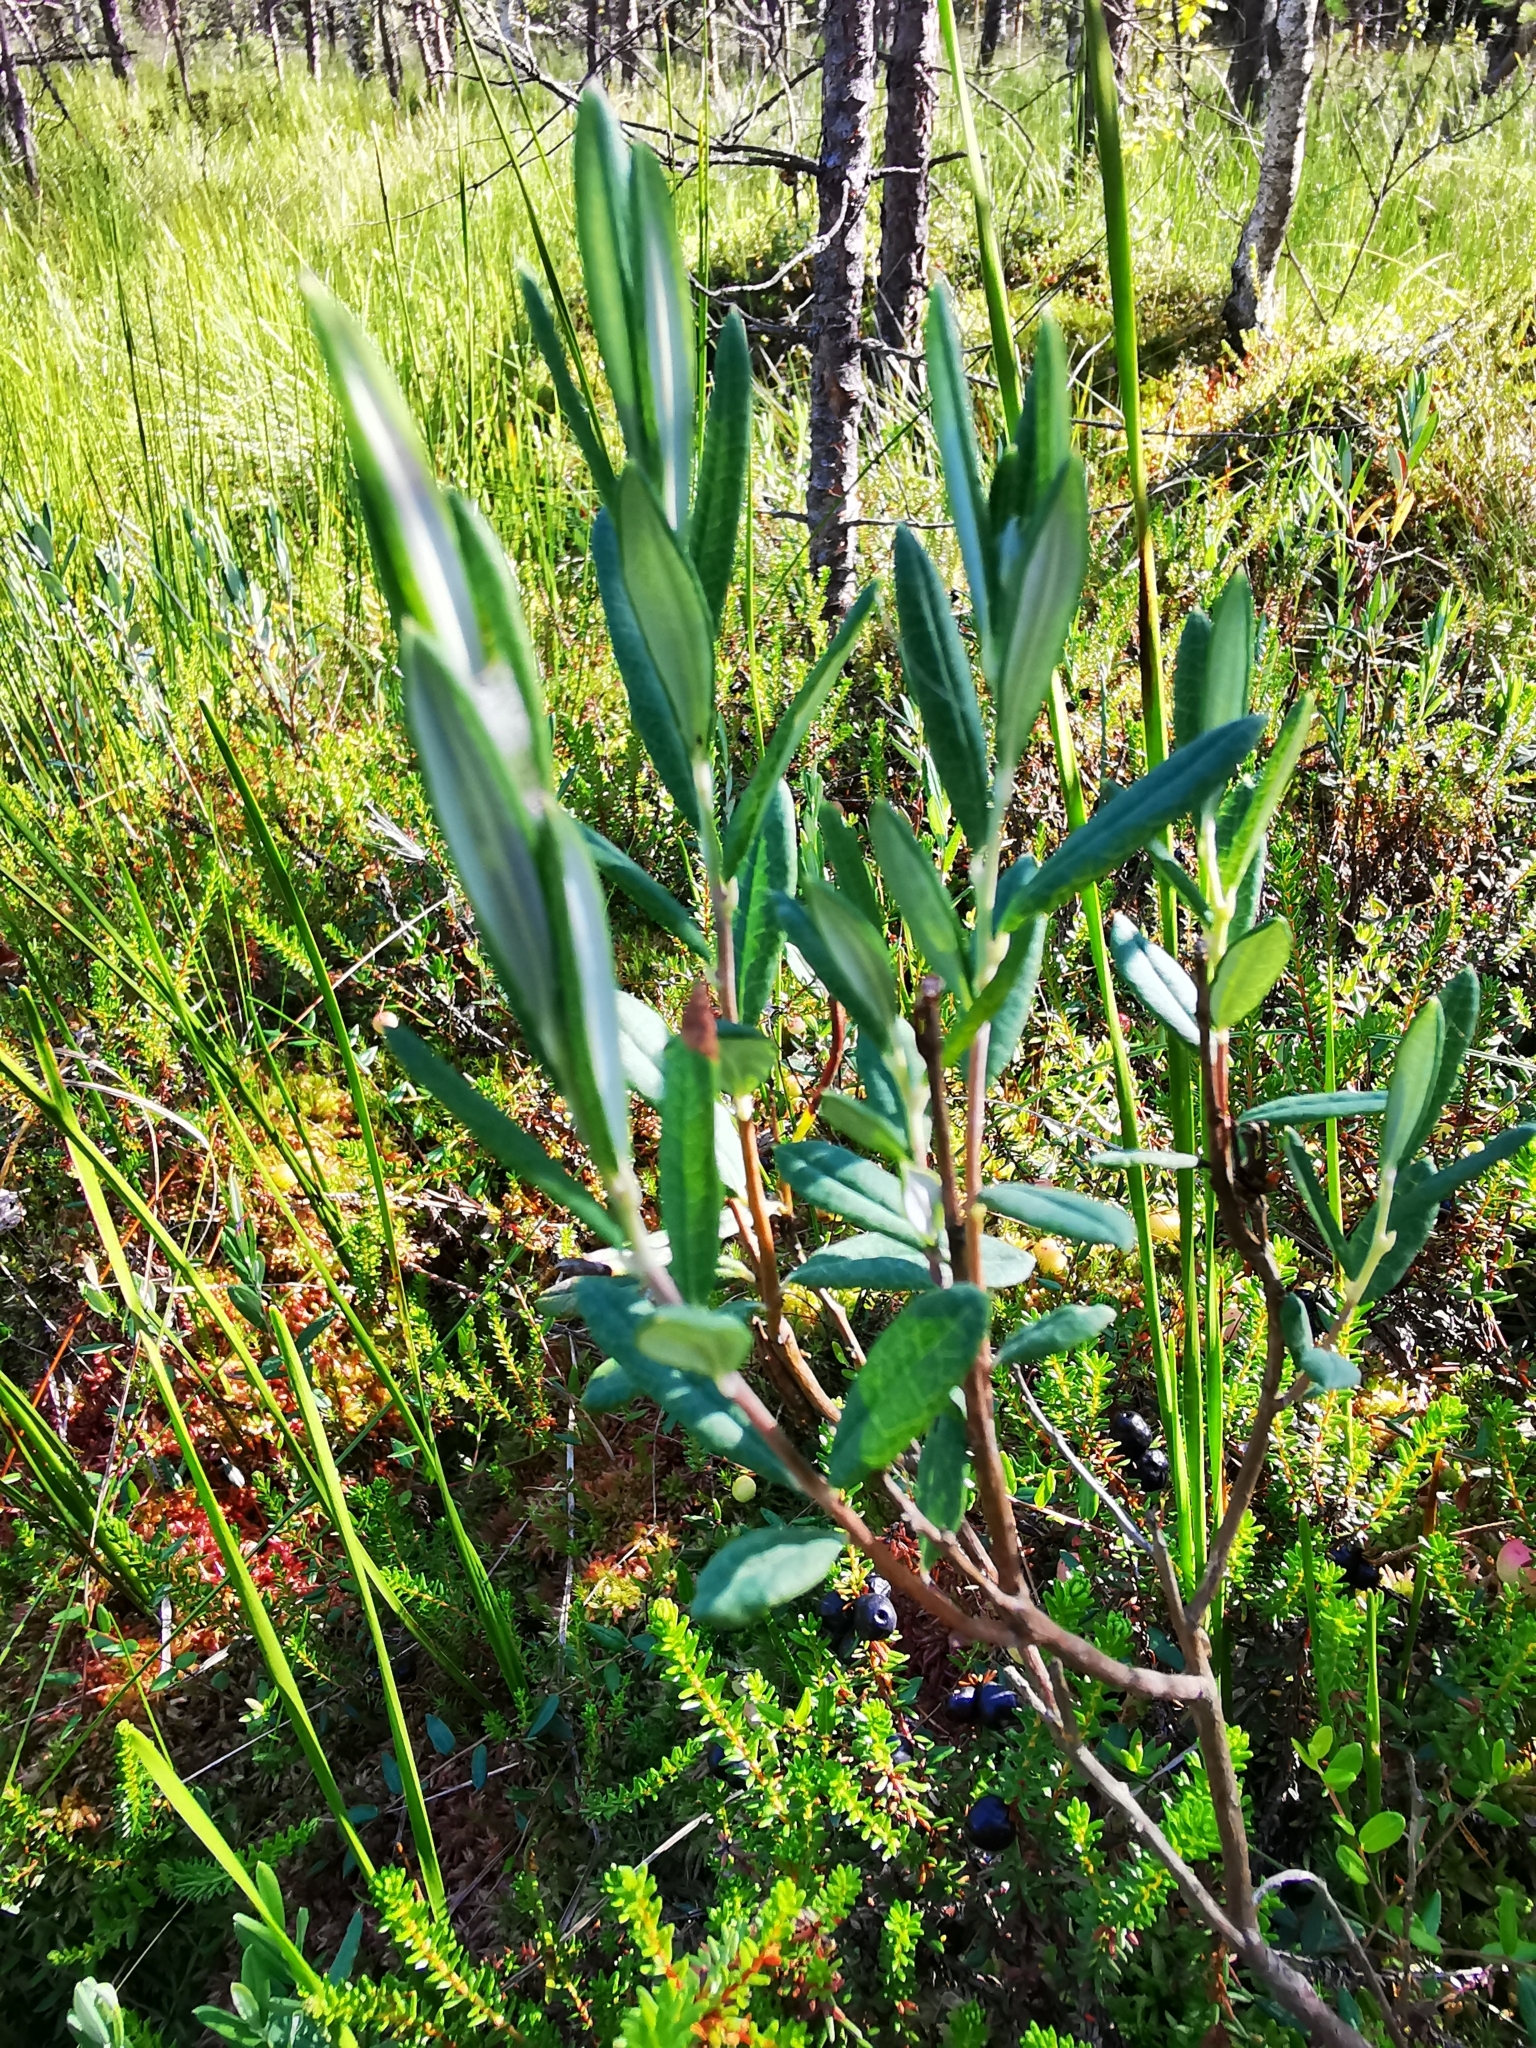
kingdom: Plantae
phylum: Tracheophyta
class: Magnoliopsida
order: Ericales
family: Ericaceae
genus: Andromeda
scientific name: Andromeda polifolia
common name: Bog-rosemary
